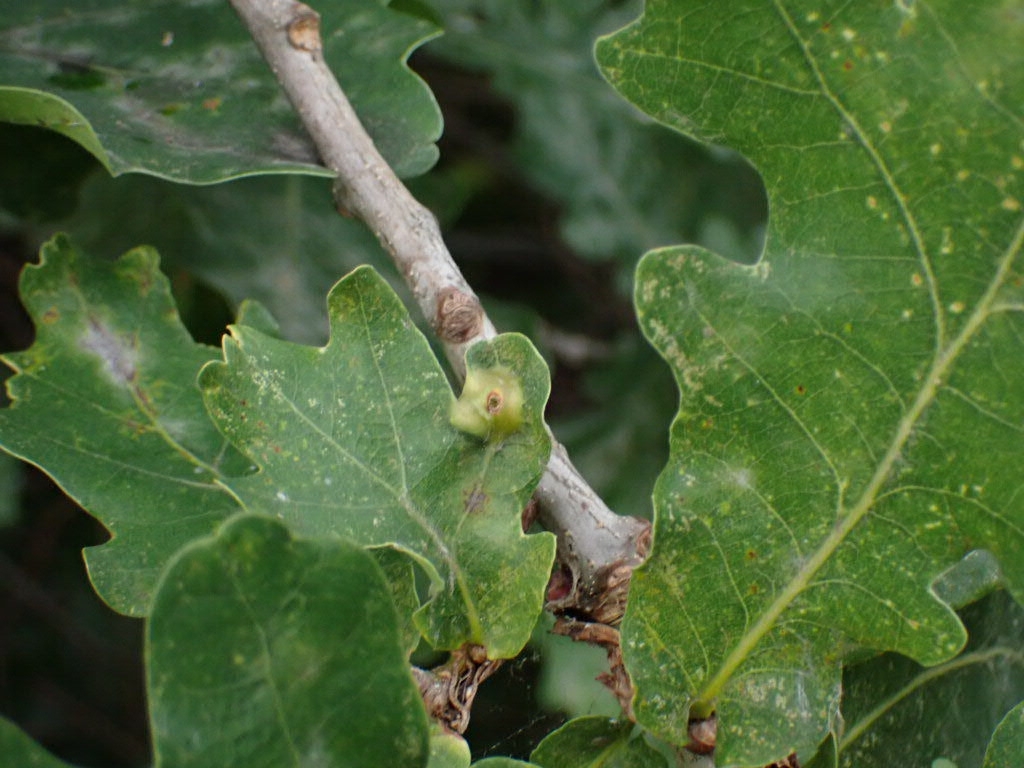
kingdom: Animalia
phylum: Arthropoda
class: Insecta
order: Hymenoptera
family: Cynipidae
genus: Andricus
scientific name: Andricus curvator
